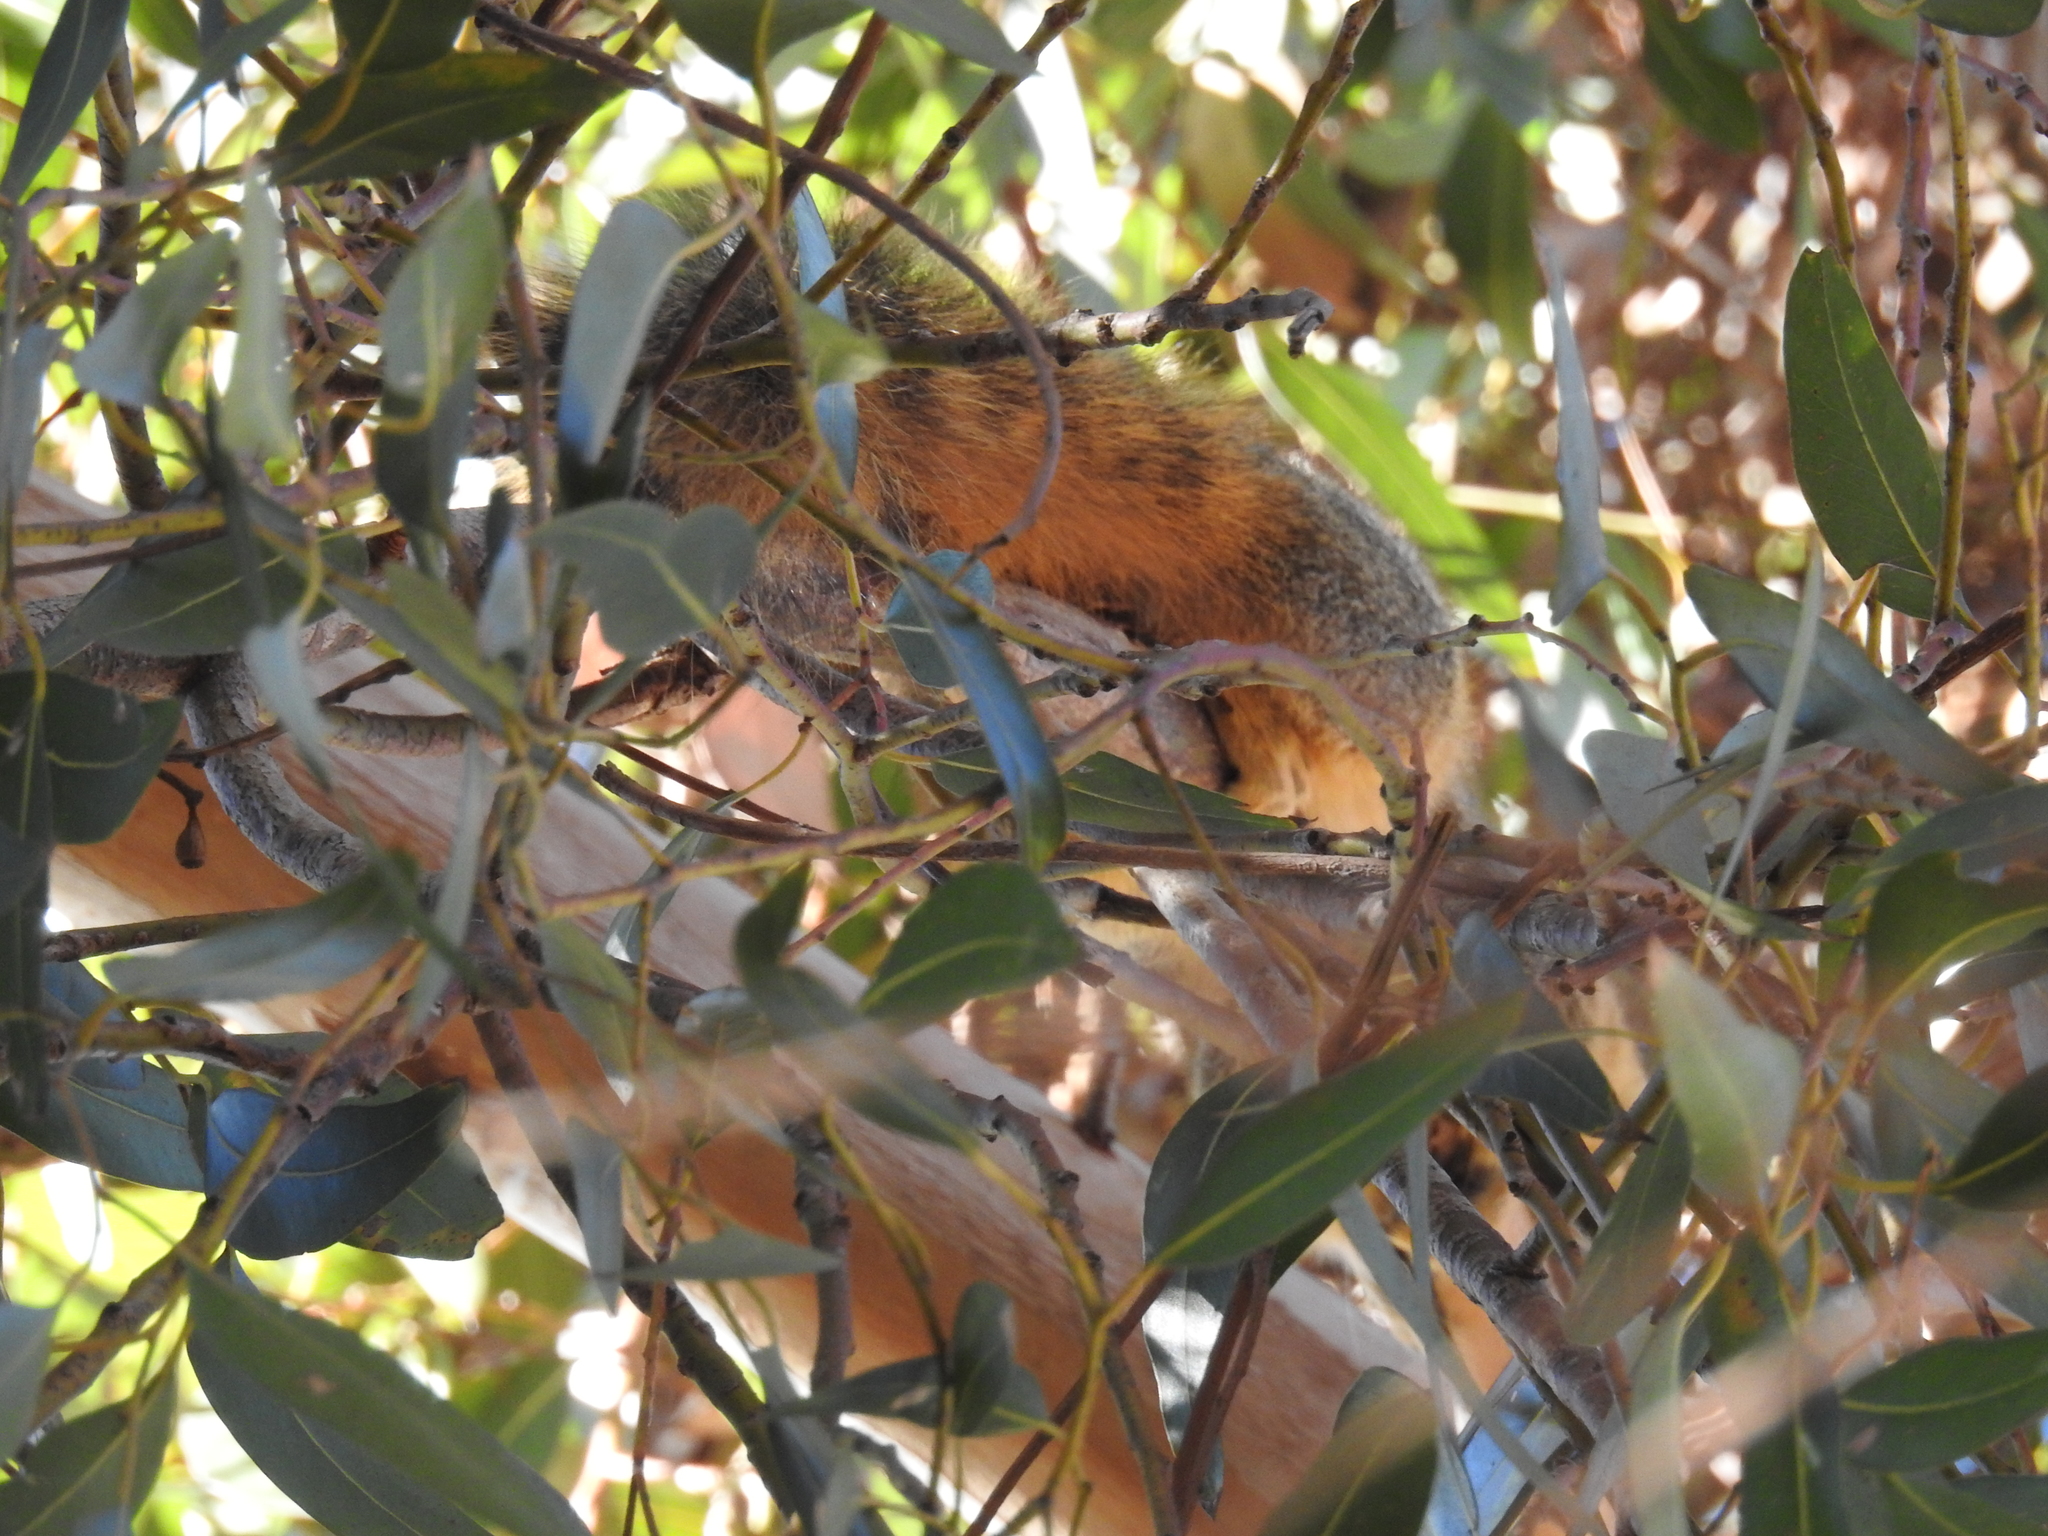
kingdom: Animalia
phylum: Chordata
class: Mammalia
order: Rodentia
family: Sciuridae
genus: Sciurus
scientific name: Sciurus niger
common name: Fox squirrel
